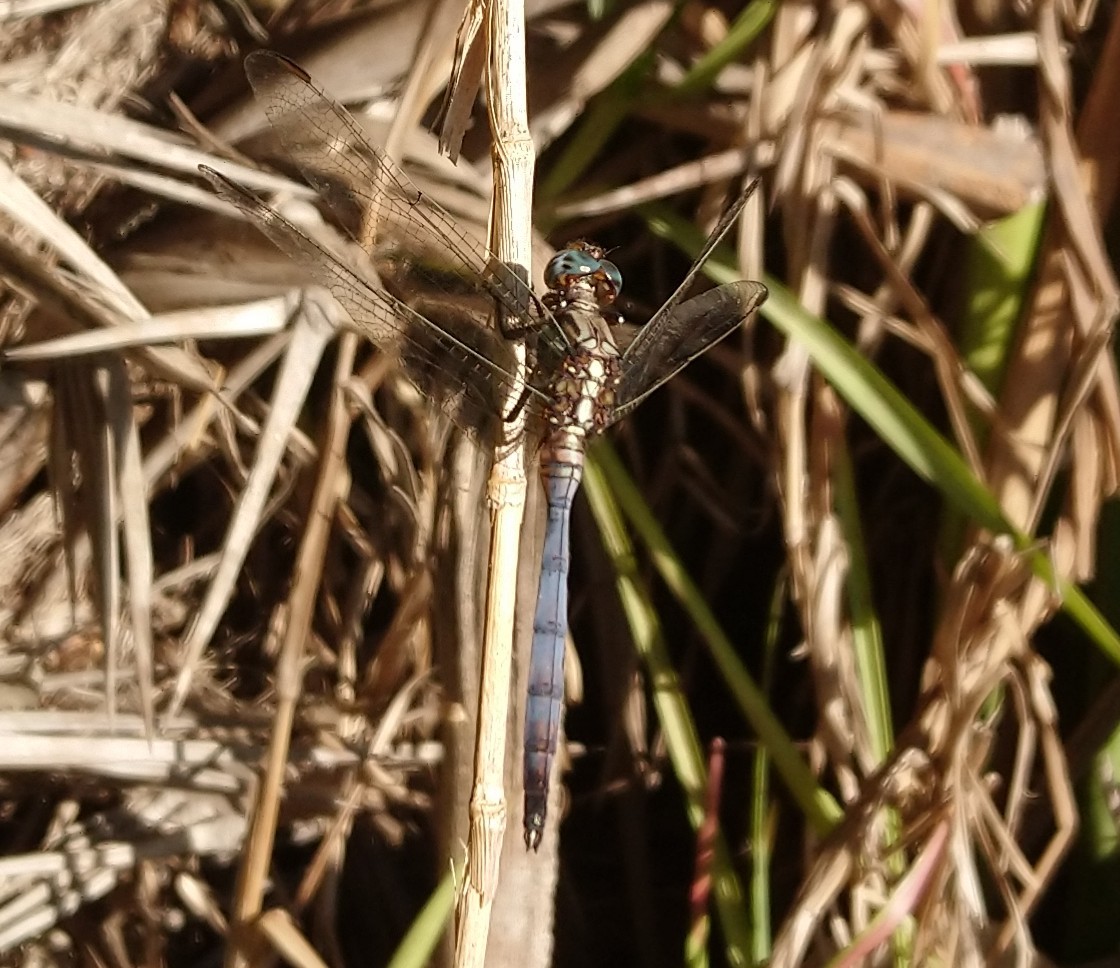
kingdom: Animalia
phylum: Arthropoda
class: Insecta
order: Odonata
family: Libellulidae
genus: Orthetrum
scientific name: Orthetrum julia
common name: Julia skimmer
